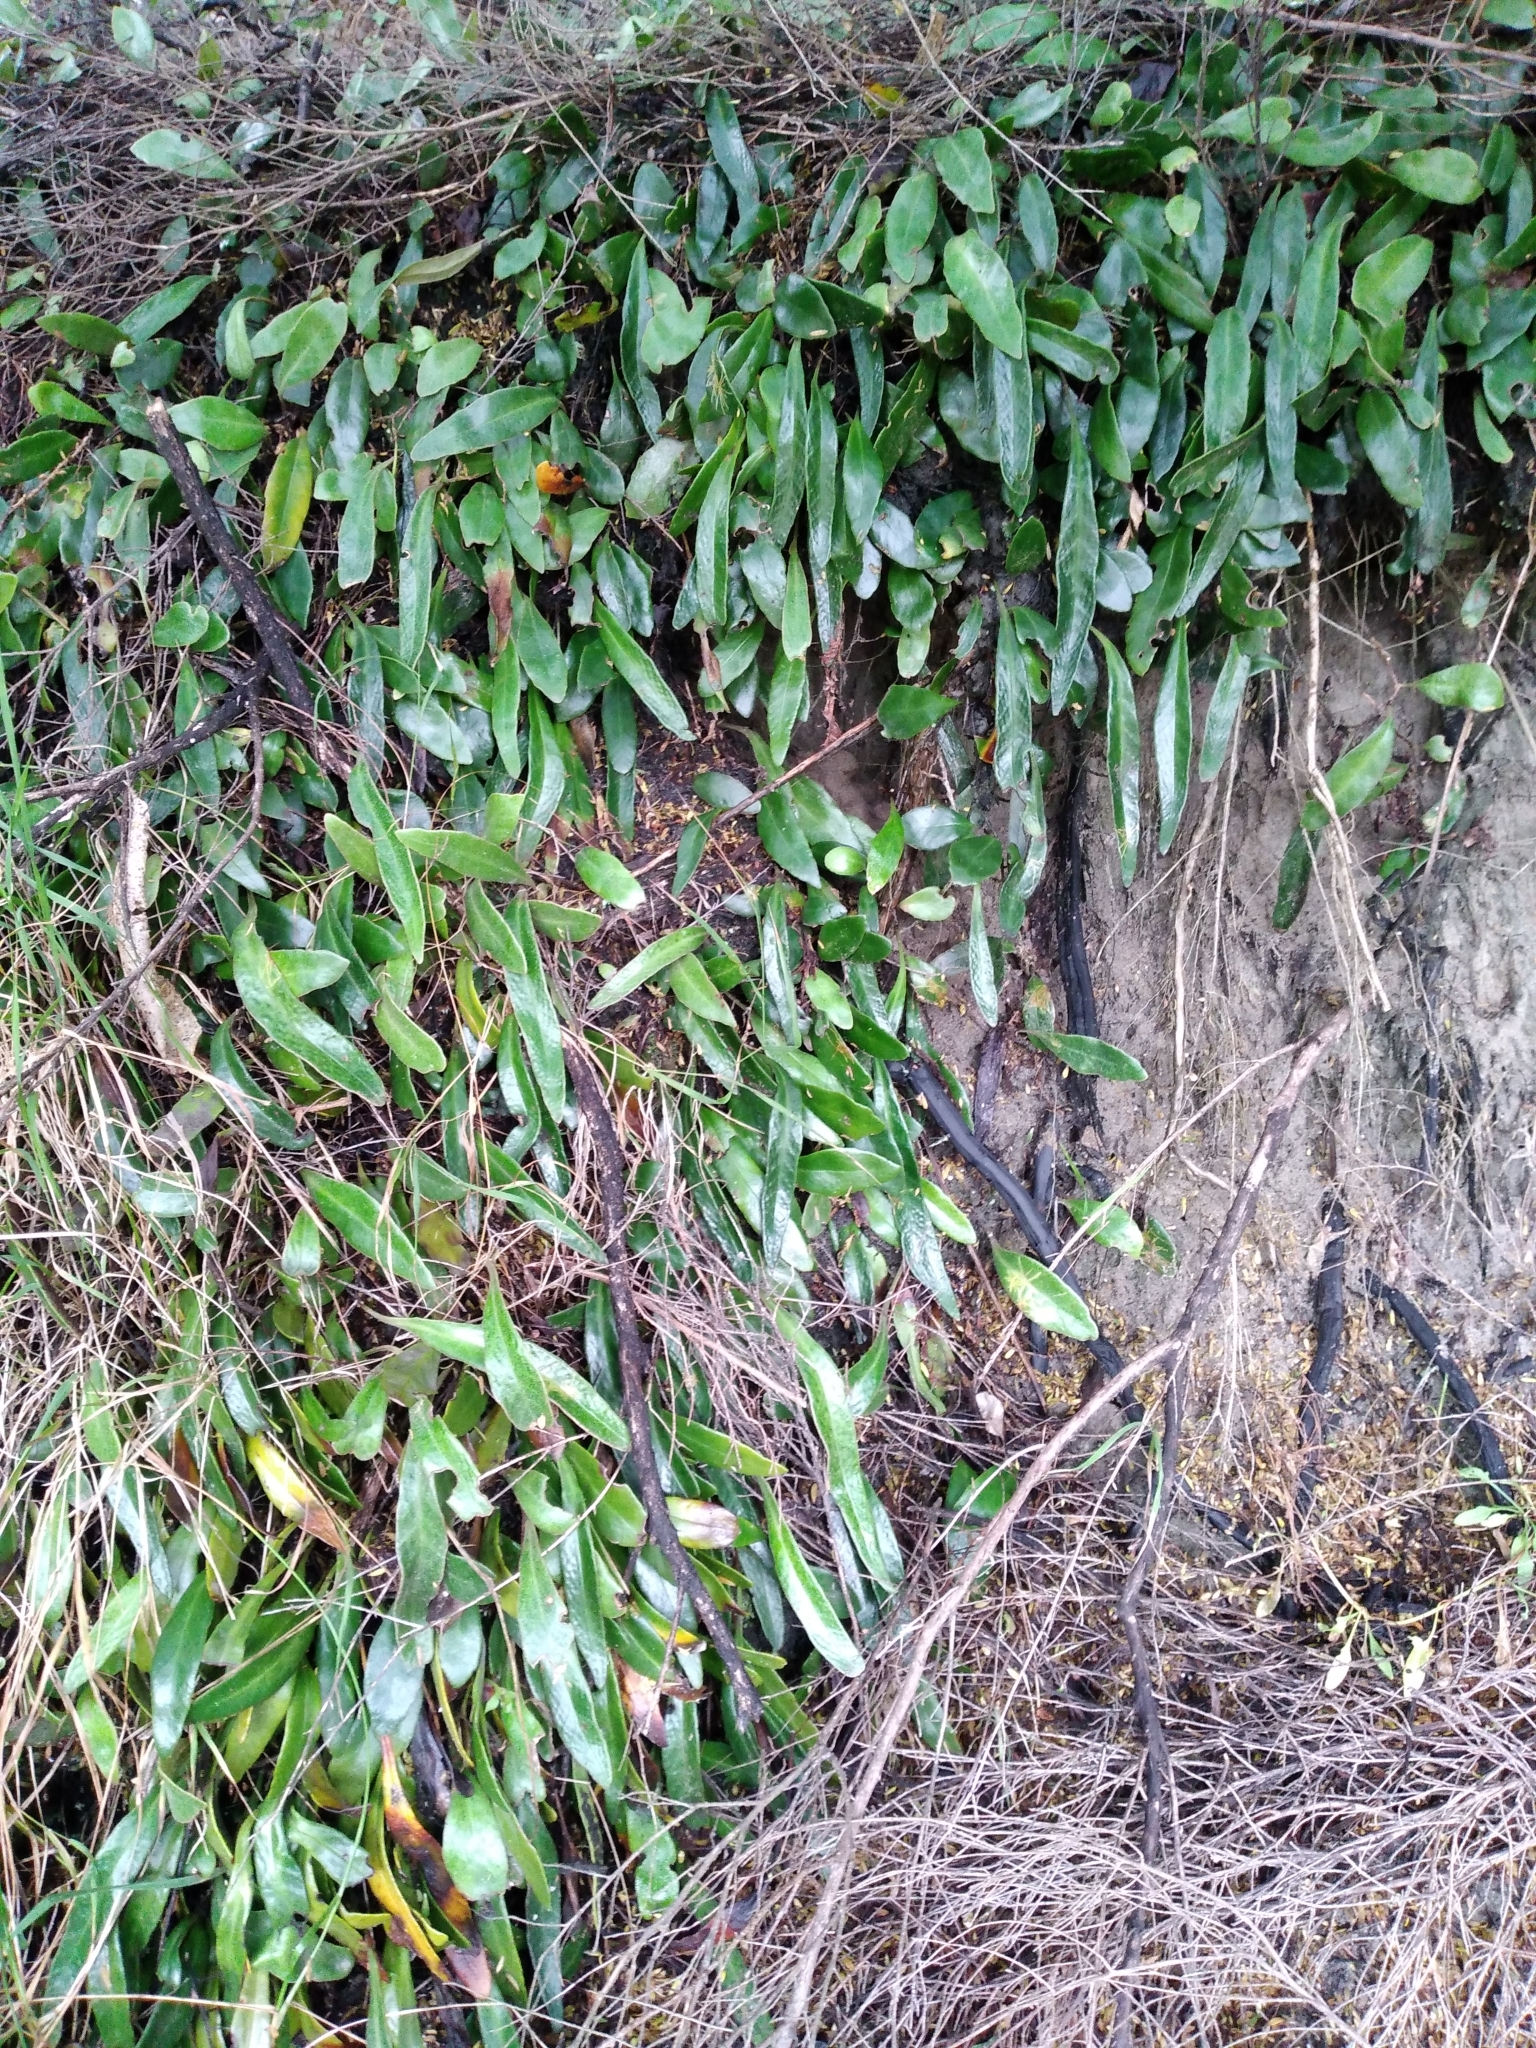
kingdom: Plantae
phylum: Tracheophyta
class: Polypodiopsida
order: Polypodiales
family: Polypodiaceae
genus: Pyrrosia
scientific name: Pyrrosia eleagnifolia
